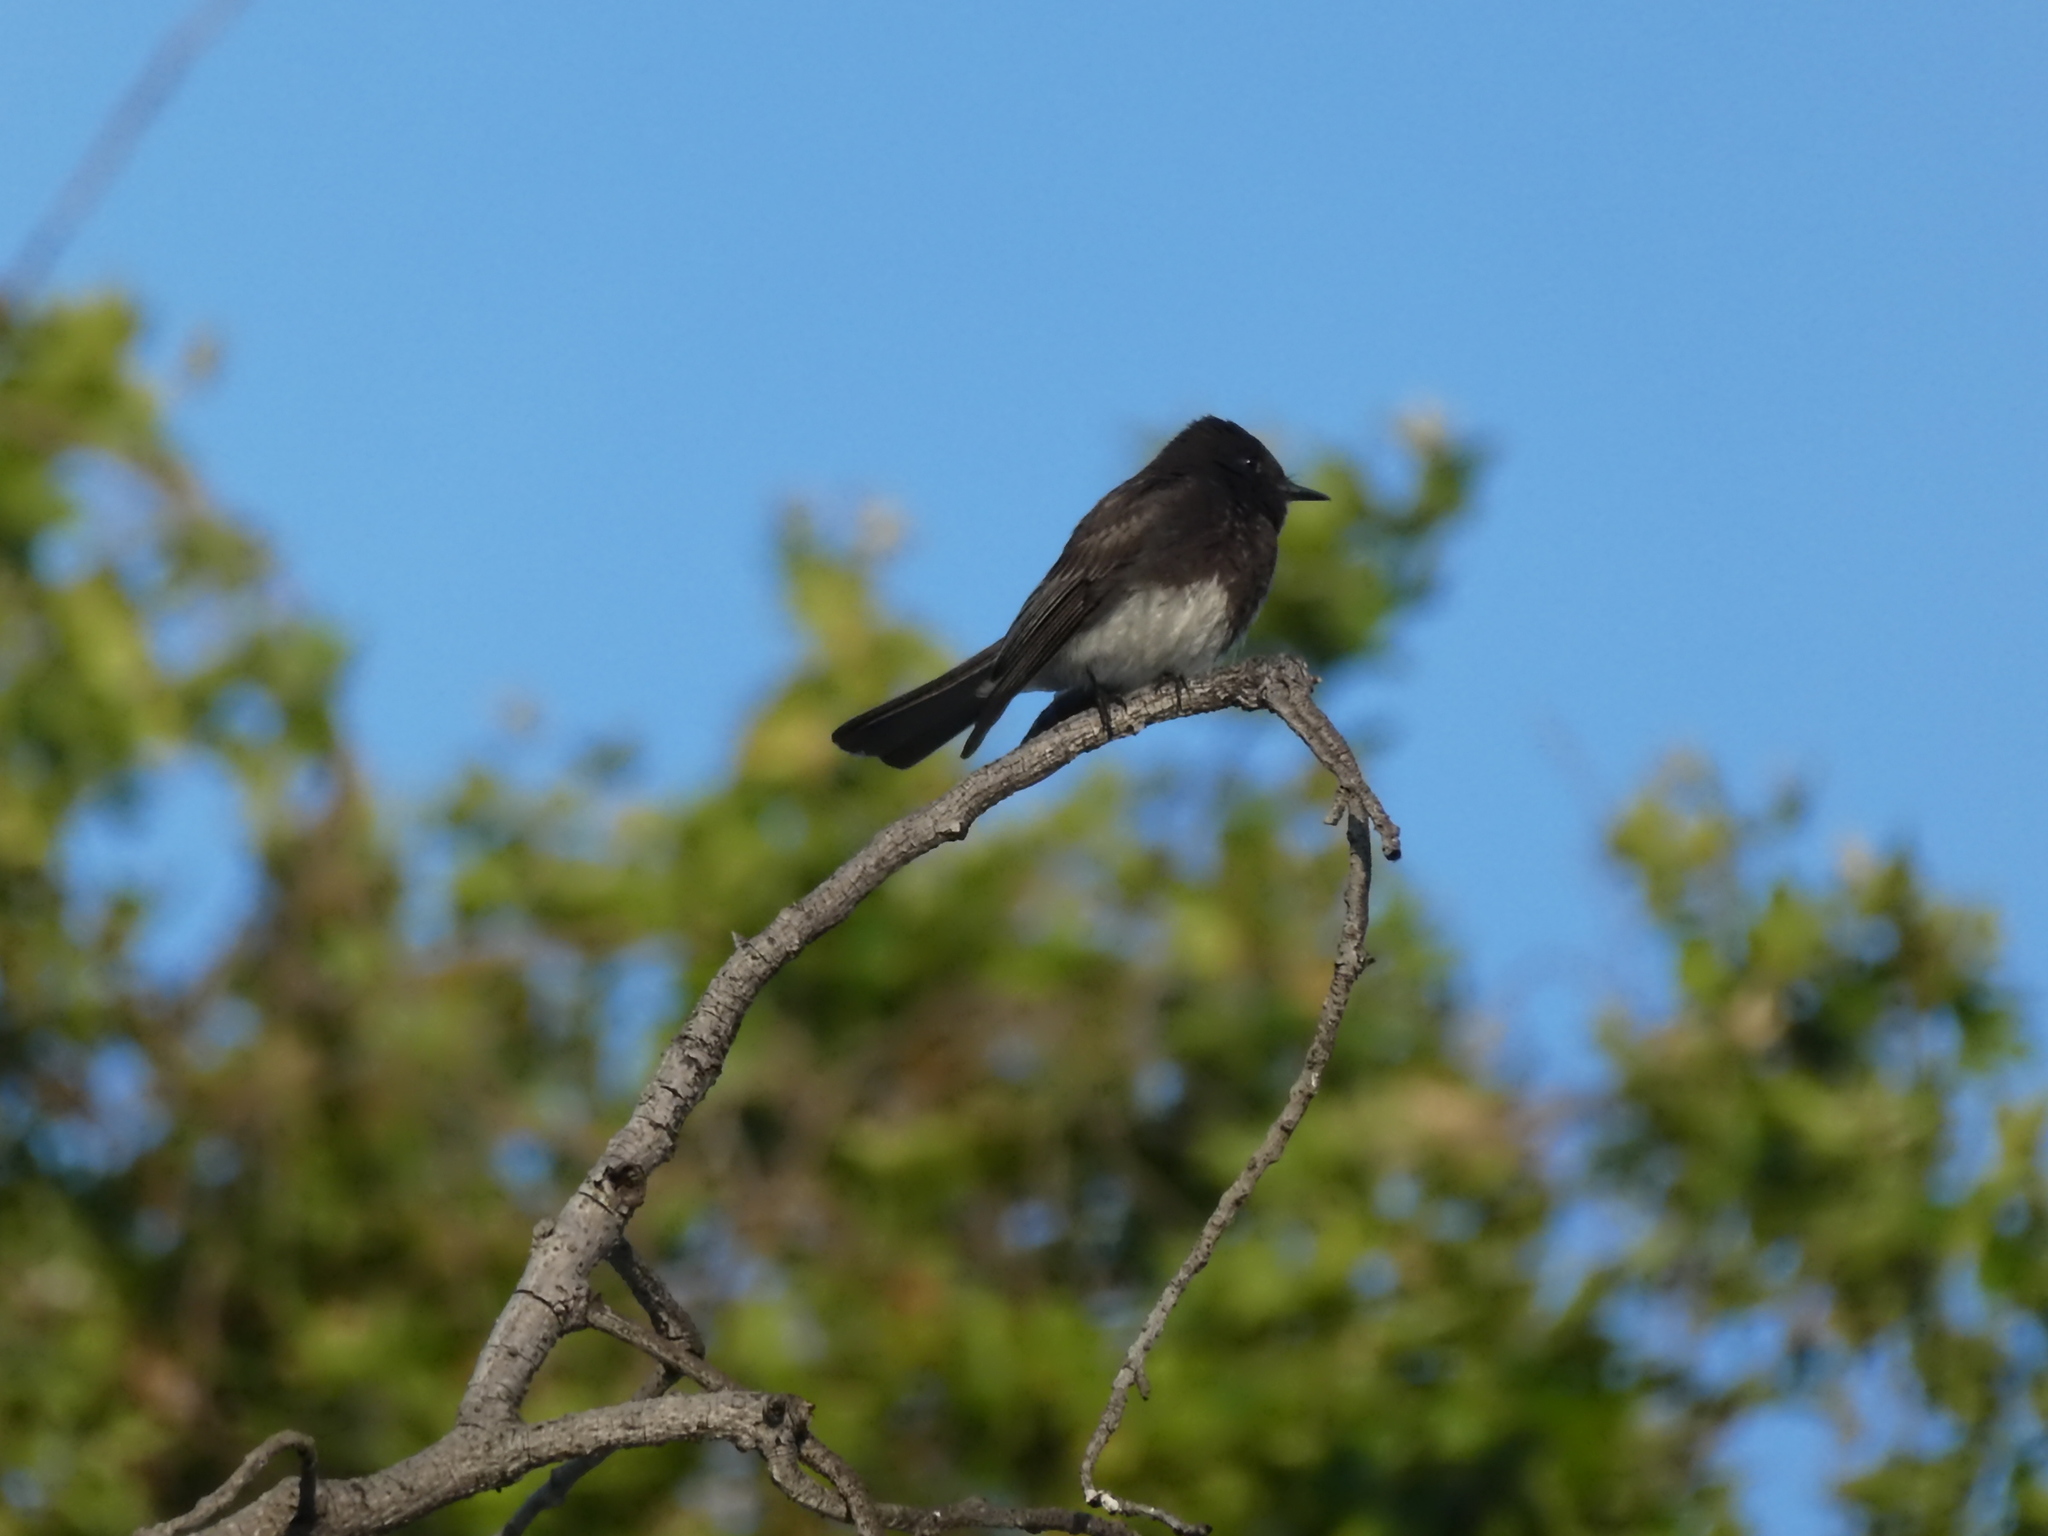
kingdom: Animalia
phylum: Chordata
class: Aves
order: Passeriformes
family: Tyrannidae
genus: Sayornis
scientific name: Sayornis nigricans
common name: Black phoebe
